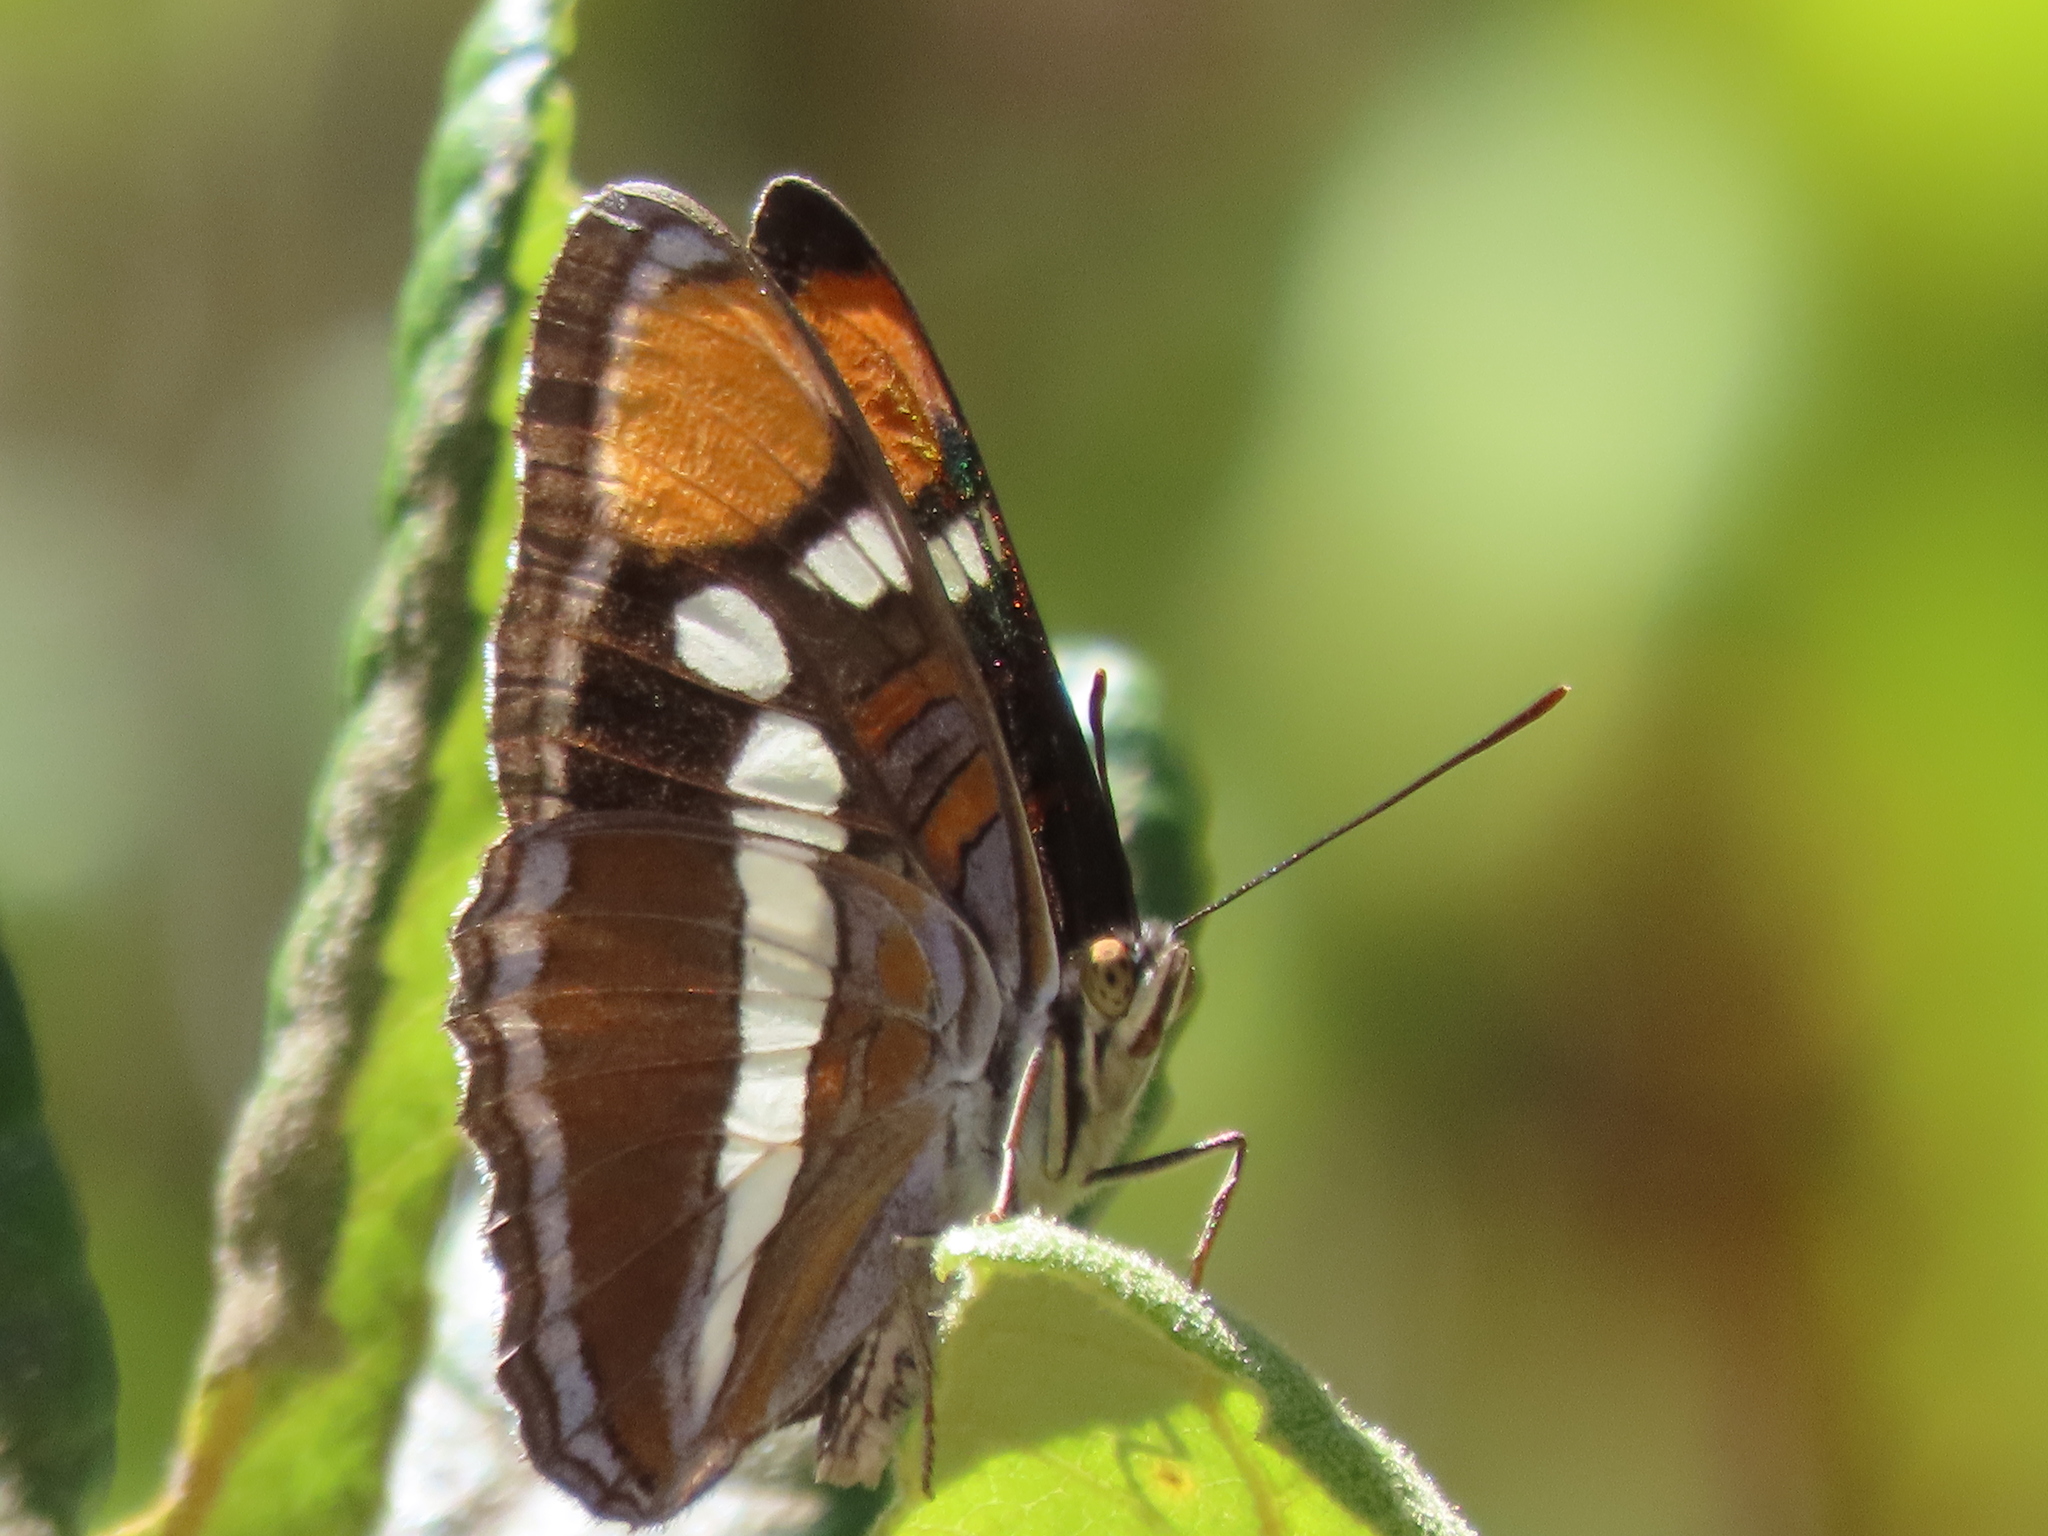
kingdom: Plantae
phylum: Tracheophyta
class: Magnoliopsida
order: Ericales
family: Ericaceae
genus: Rhododendron
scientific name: Rhododendron occidentale
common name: Western azalea
